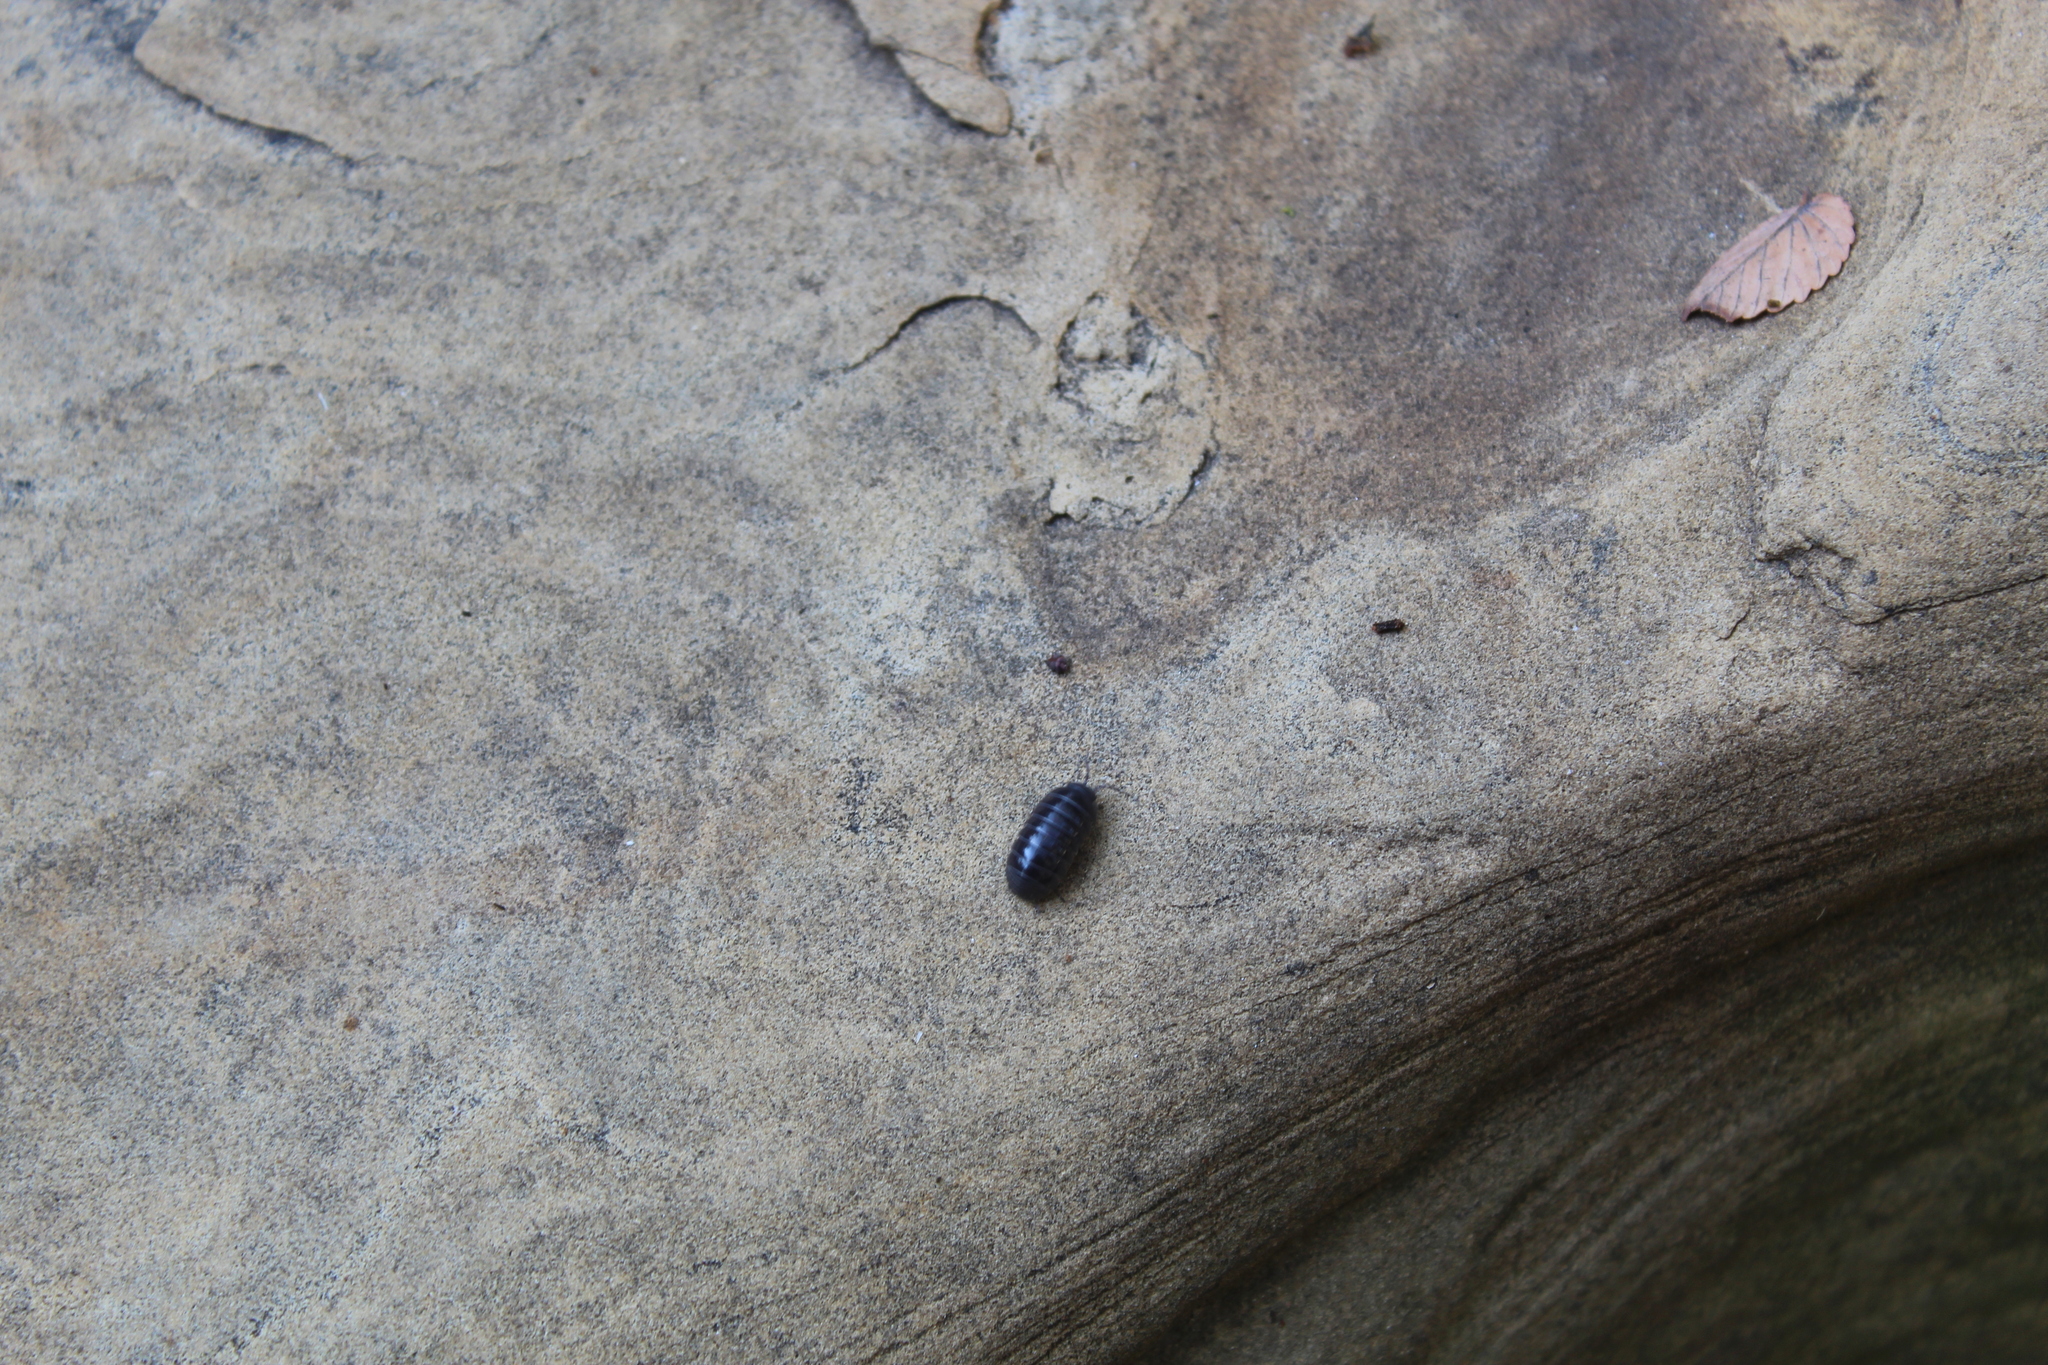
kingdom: Animalia
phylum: Arthropoda
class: Malacostraca
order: Isopoda
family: Armadillidiidae
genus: Armadillidium
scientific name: Armadillidium vulgare
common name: Common pill woodlouse
